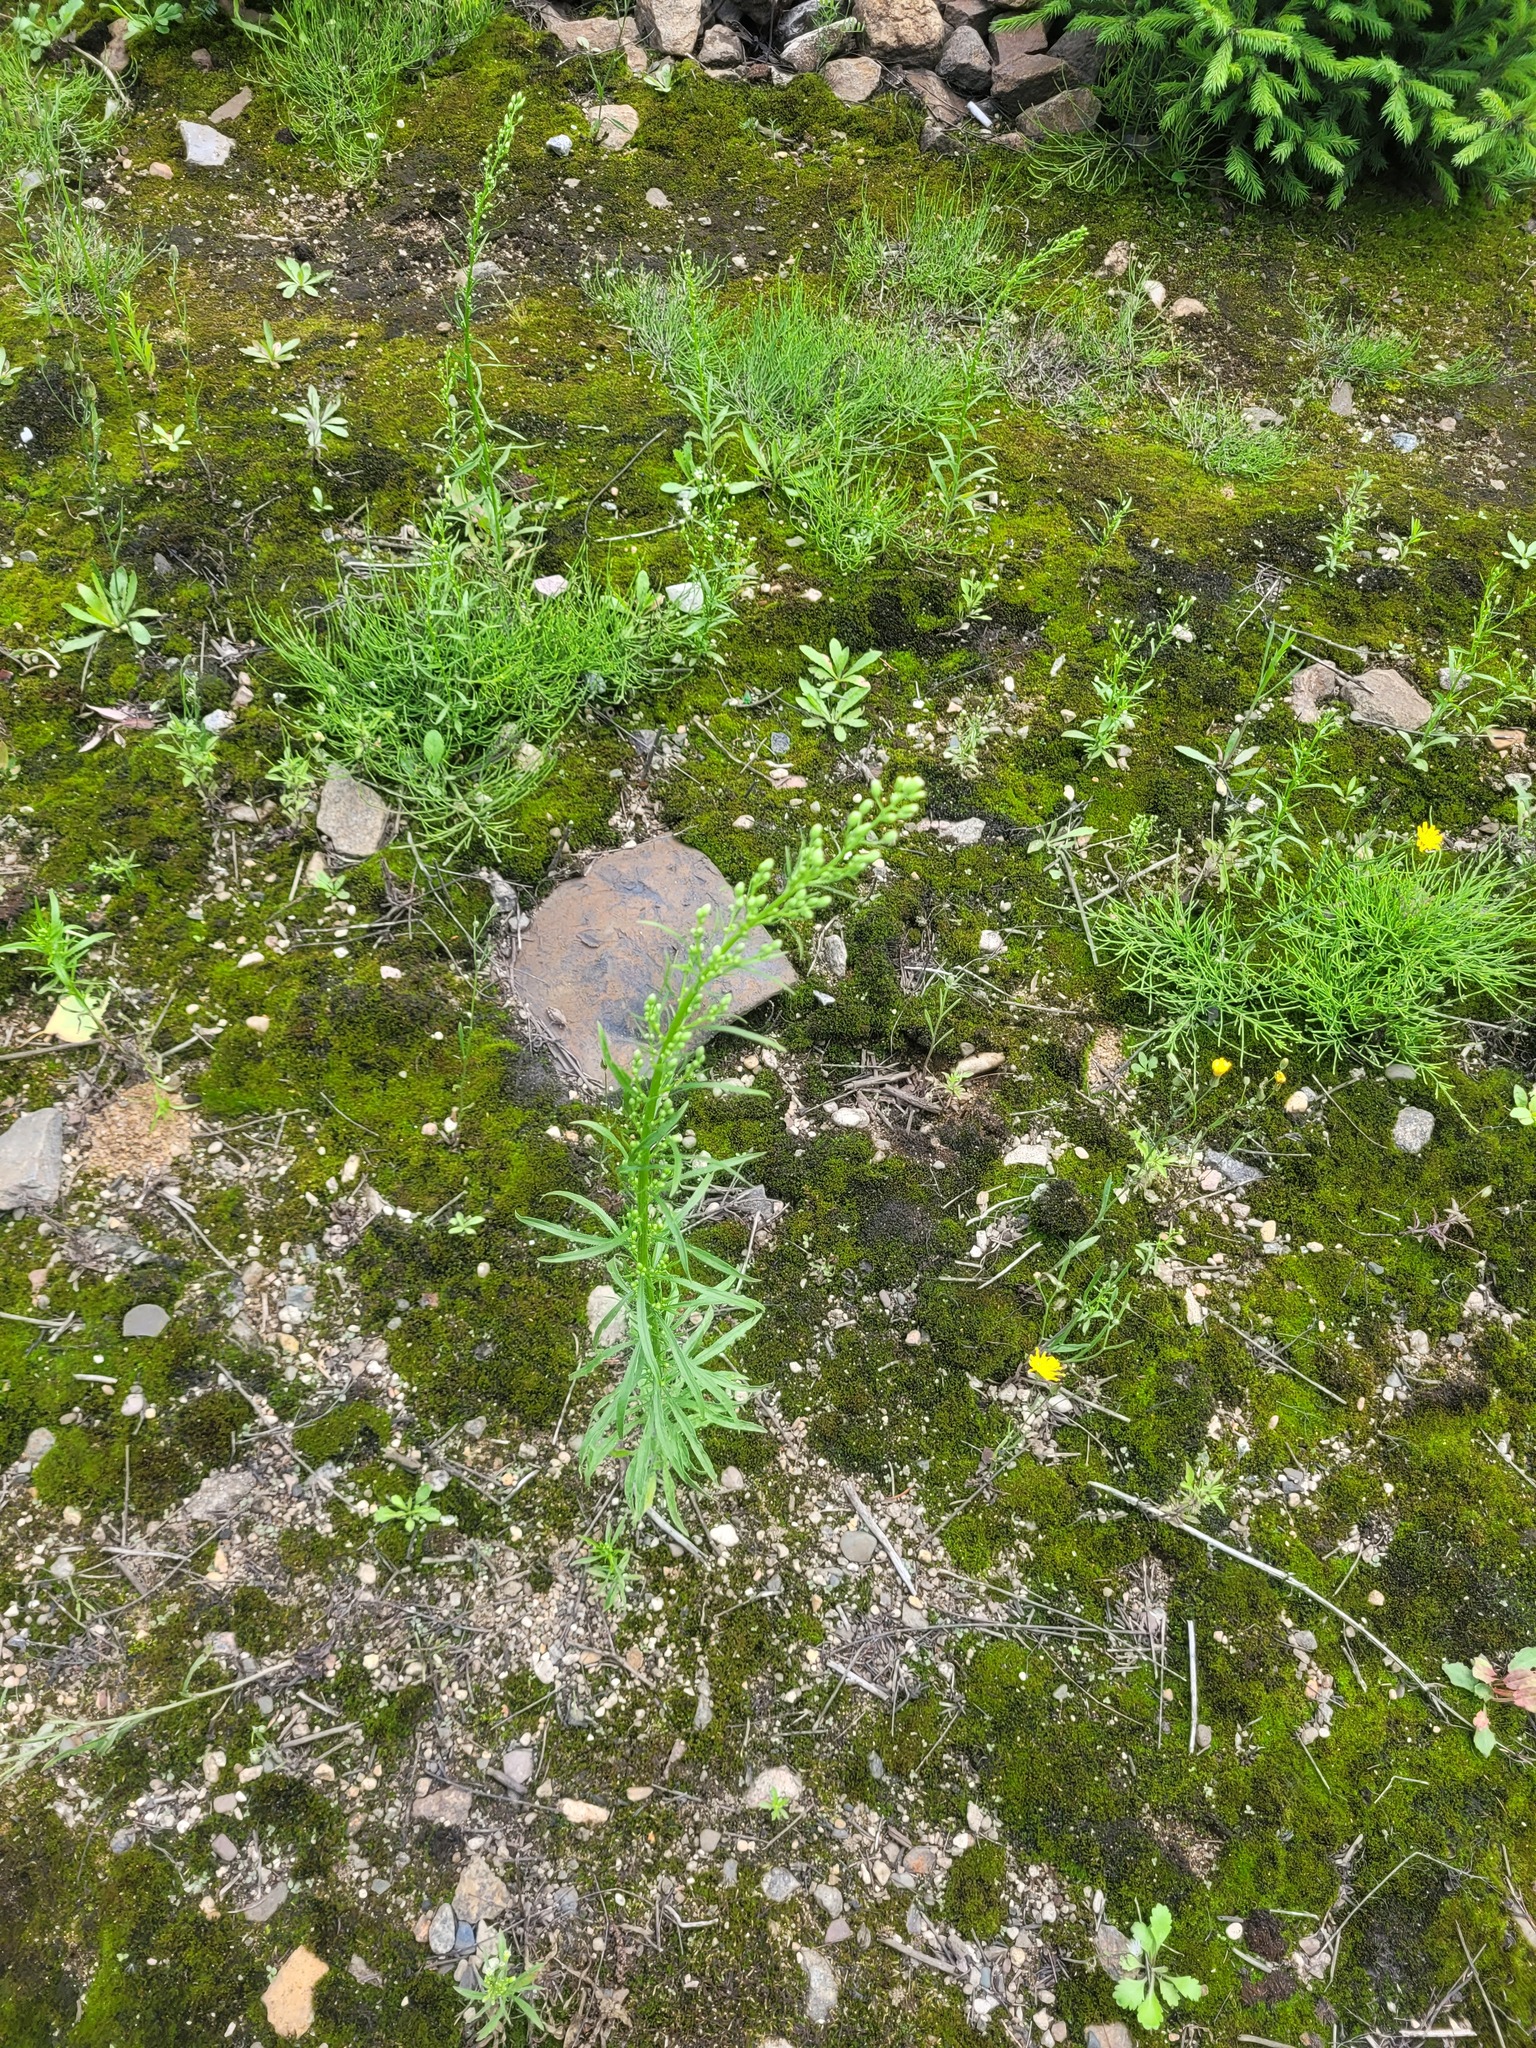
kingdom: Plantae
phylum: Tracheophyta
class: Magnoliopsida
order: Asterales
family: Asteraceae
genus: Erigeron
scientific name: Erigeron canadensis
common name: Canadian fleabane
